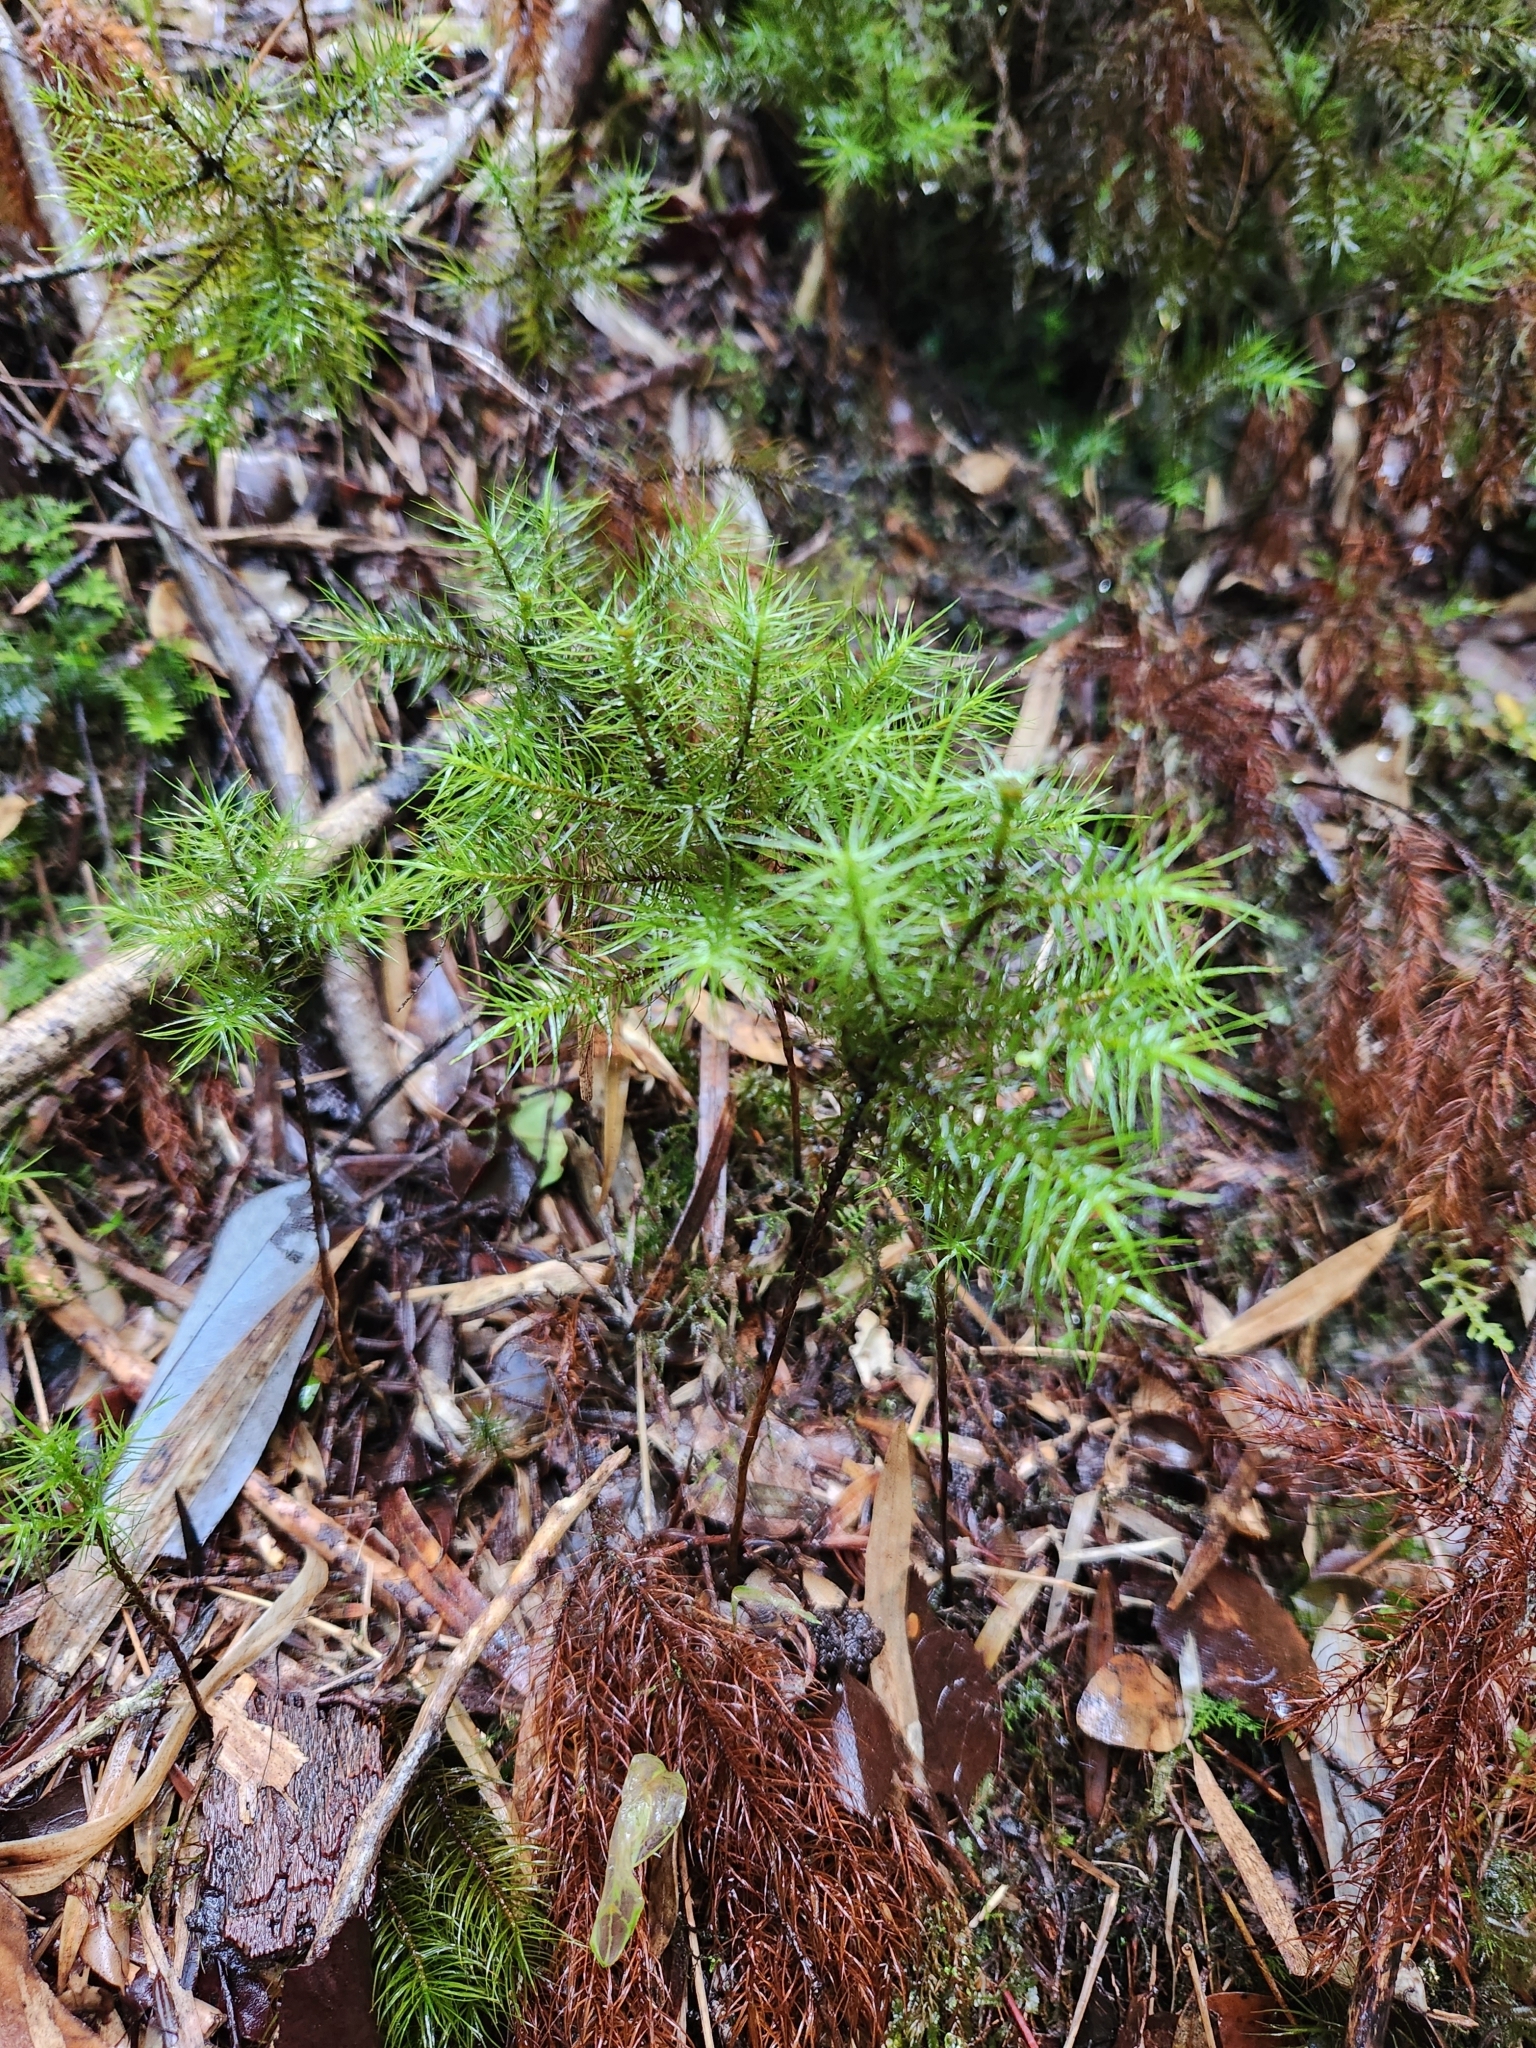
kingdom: Plantae
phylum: Bryophyta
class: Polytrichopsida
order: Polytrichales
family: Polytrichaceae
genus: Dendroligotrichum
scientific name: Dendroligotrichum dendroides
